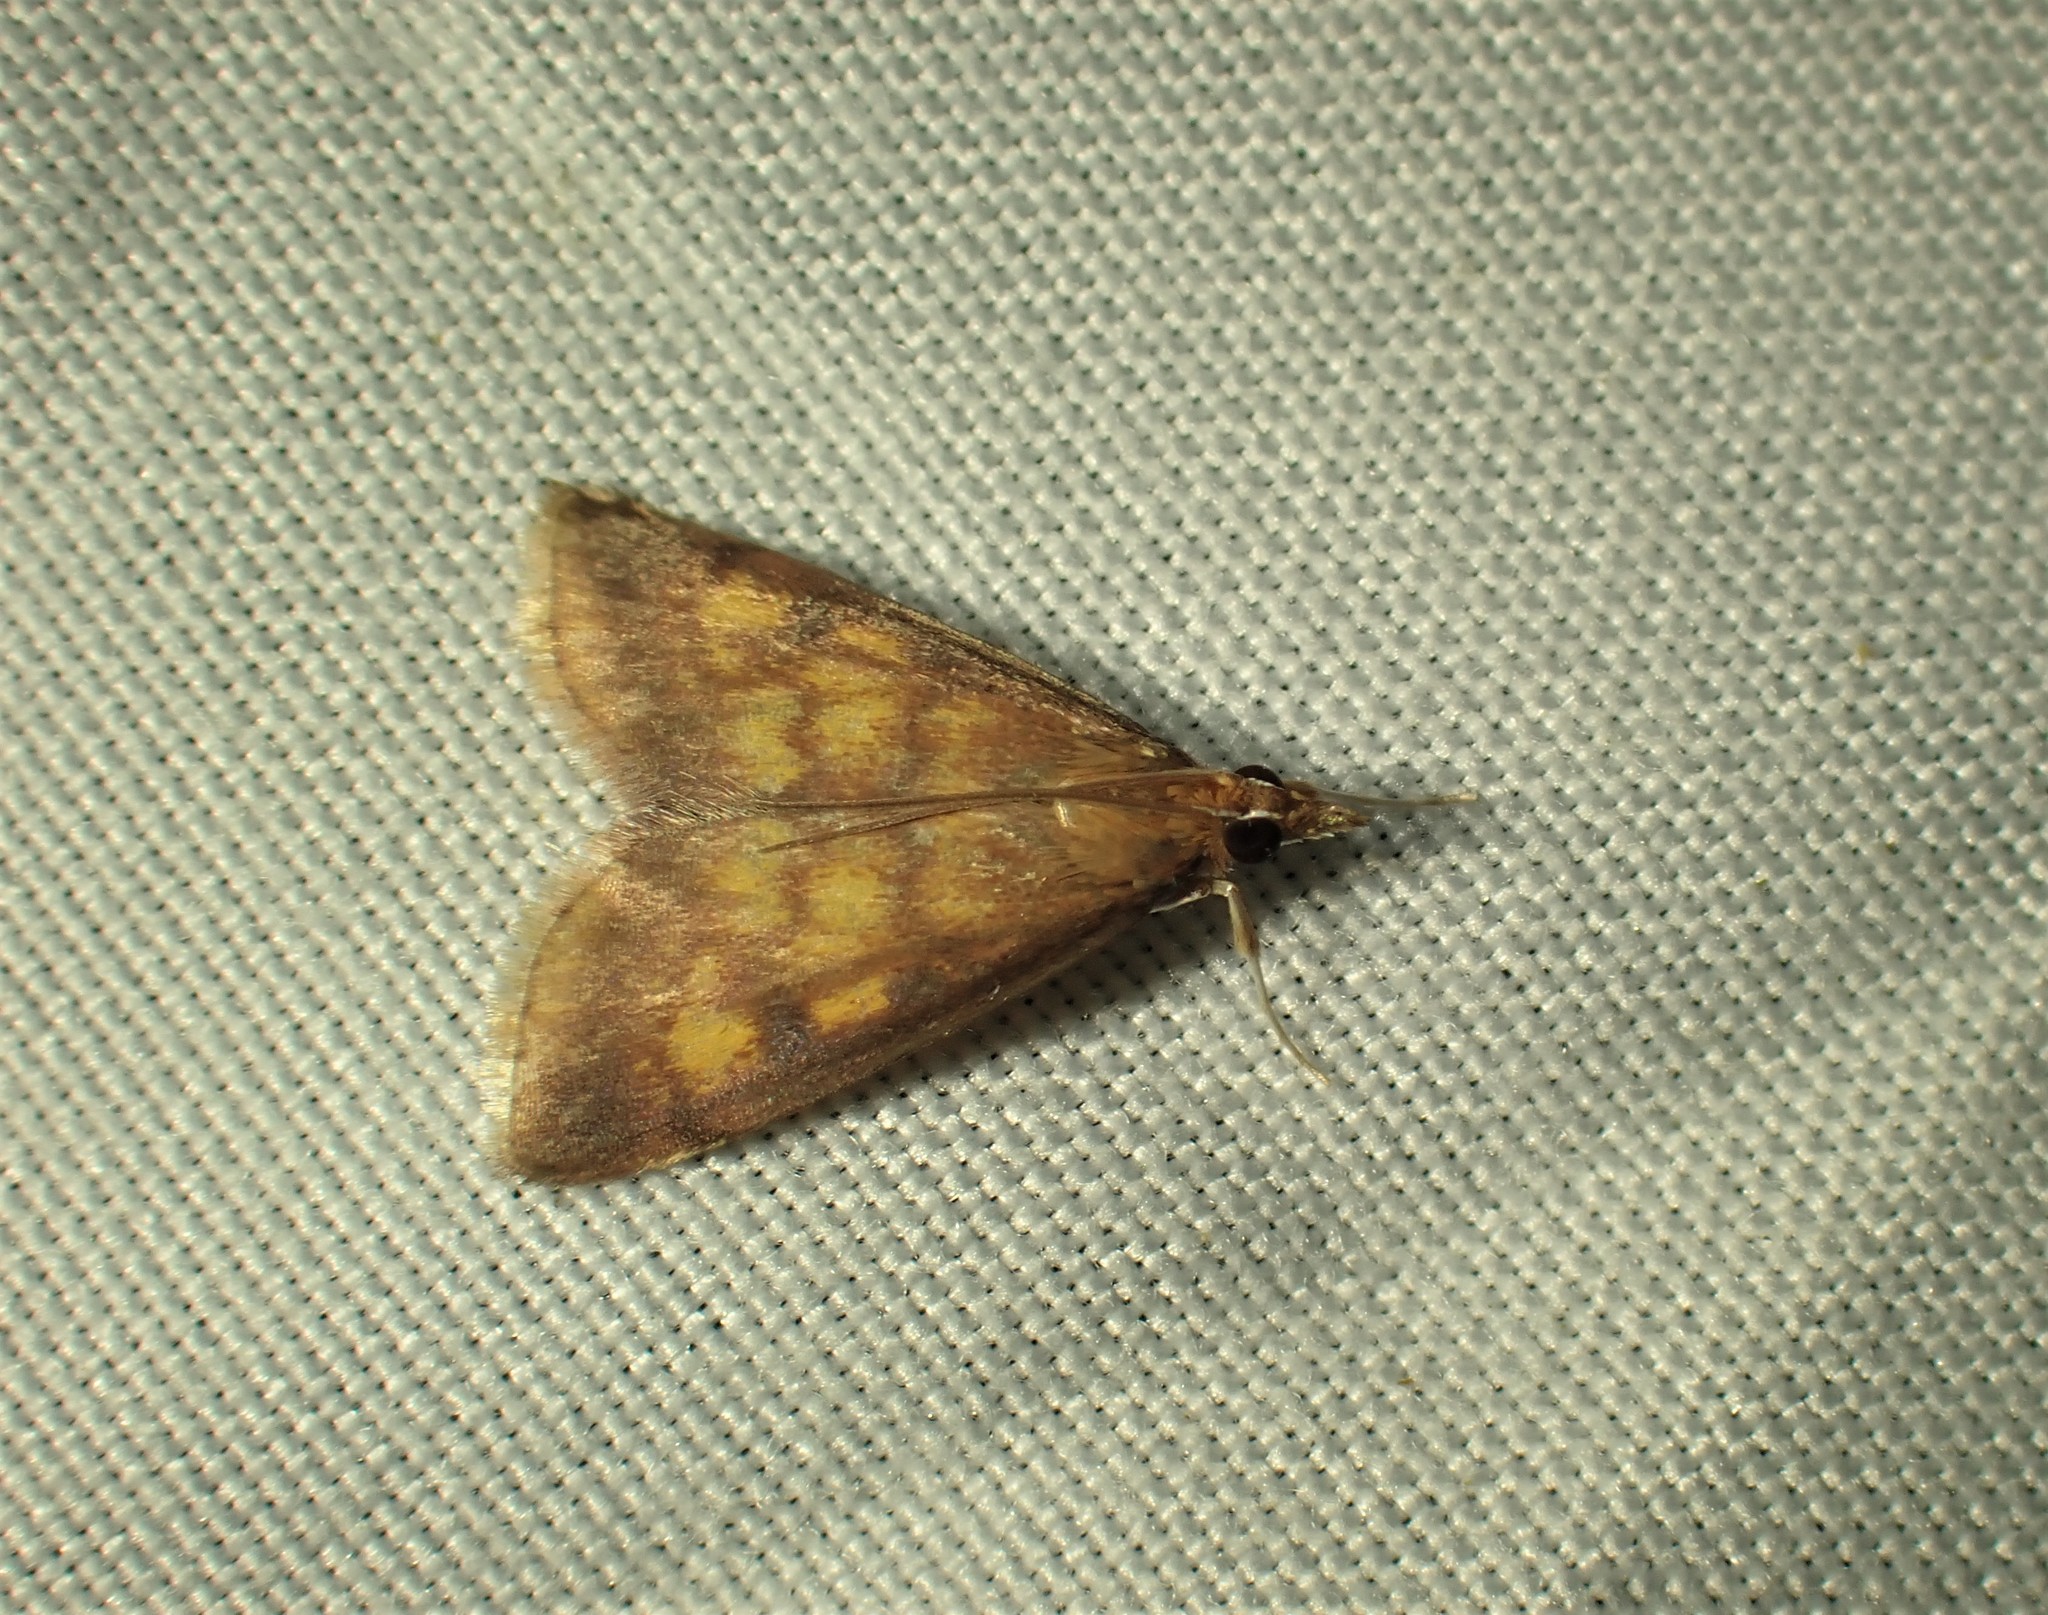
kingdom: Animalia
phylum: Arthropoda
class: Insecta
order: Lepidoptera
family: Crambidae
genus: Pyrausta
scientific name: Pyrausta acrionalis
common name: Mint-loving pyrausta moth
